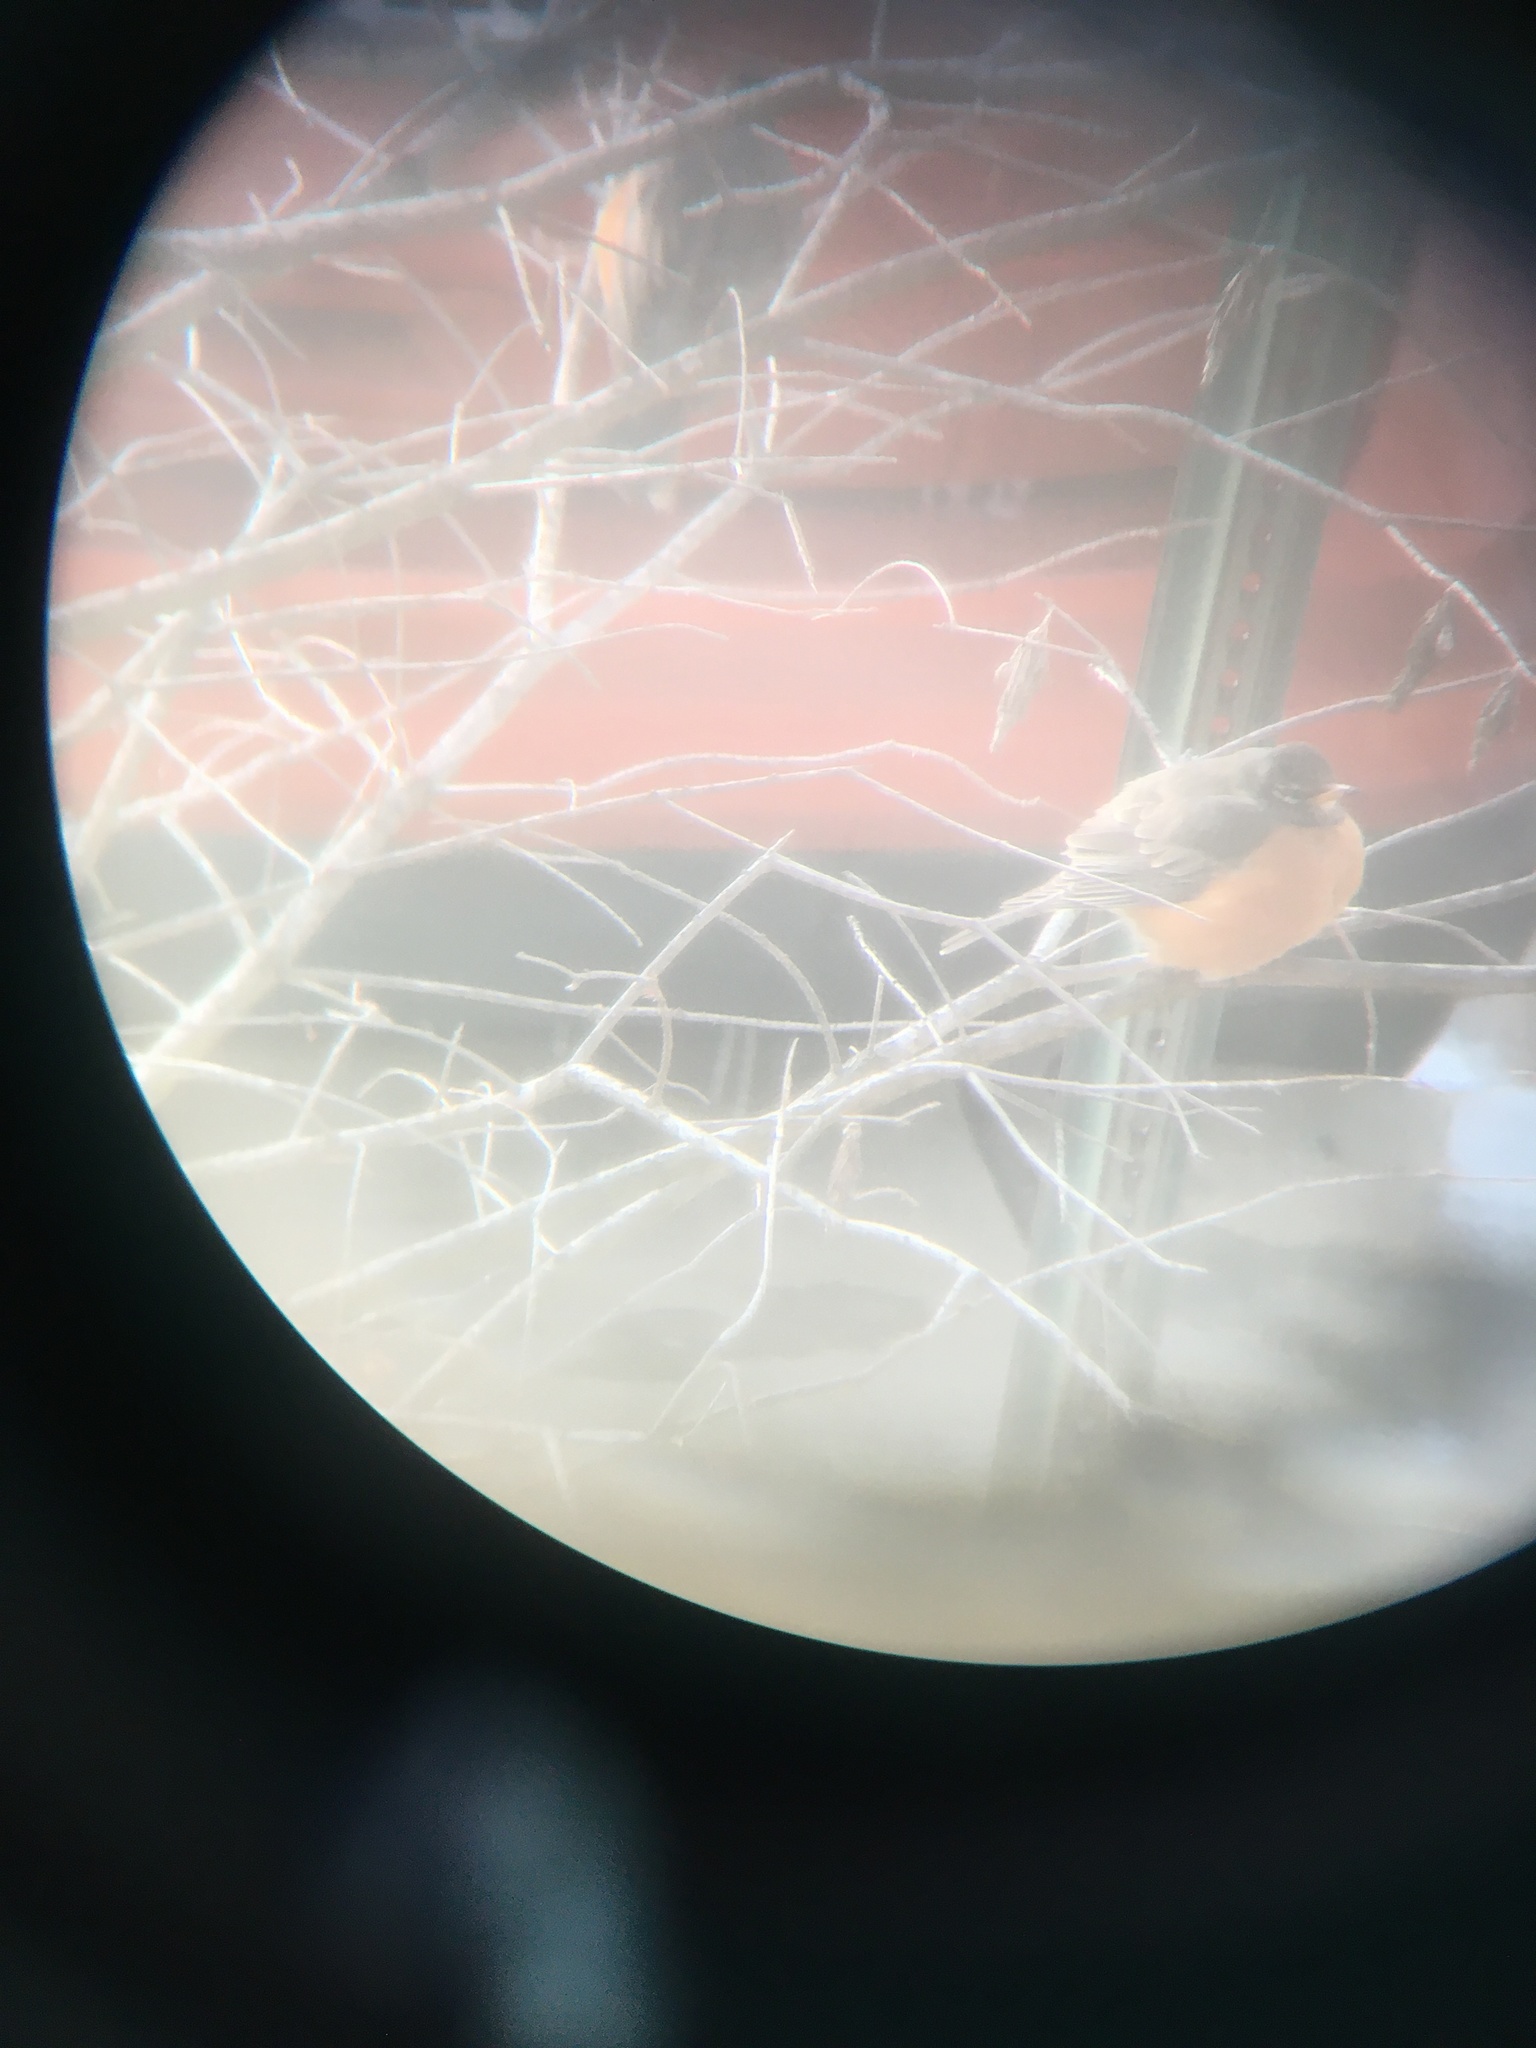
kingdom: Animalia
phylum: Chordata
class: Aves
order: Passeriformes
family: Turdidae
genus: Turdus
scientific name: Turdus migratorius
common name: American robin
